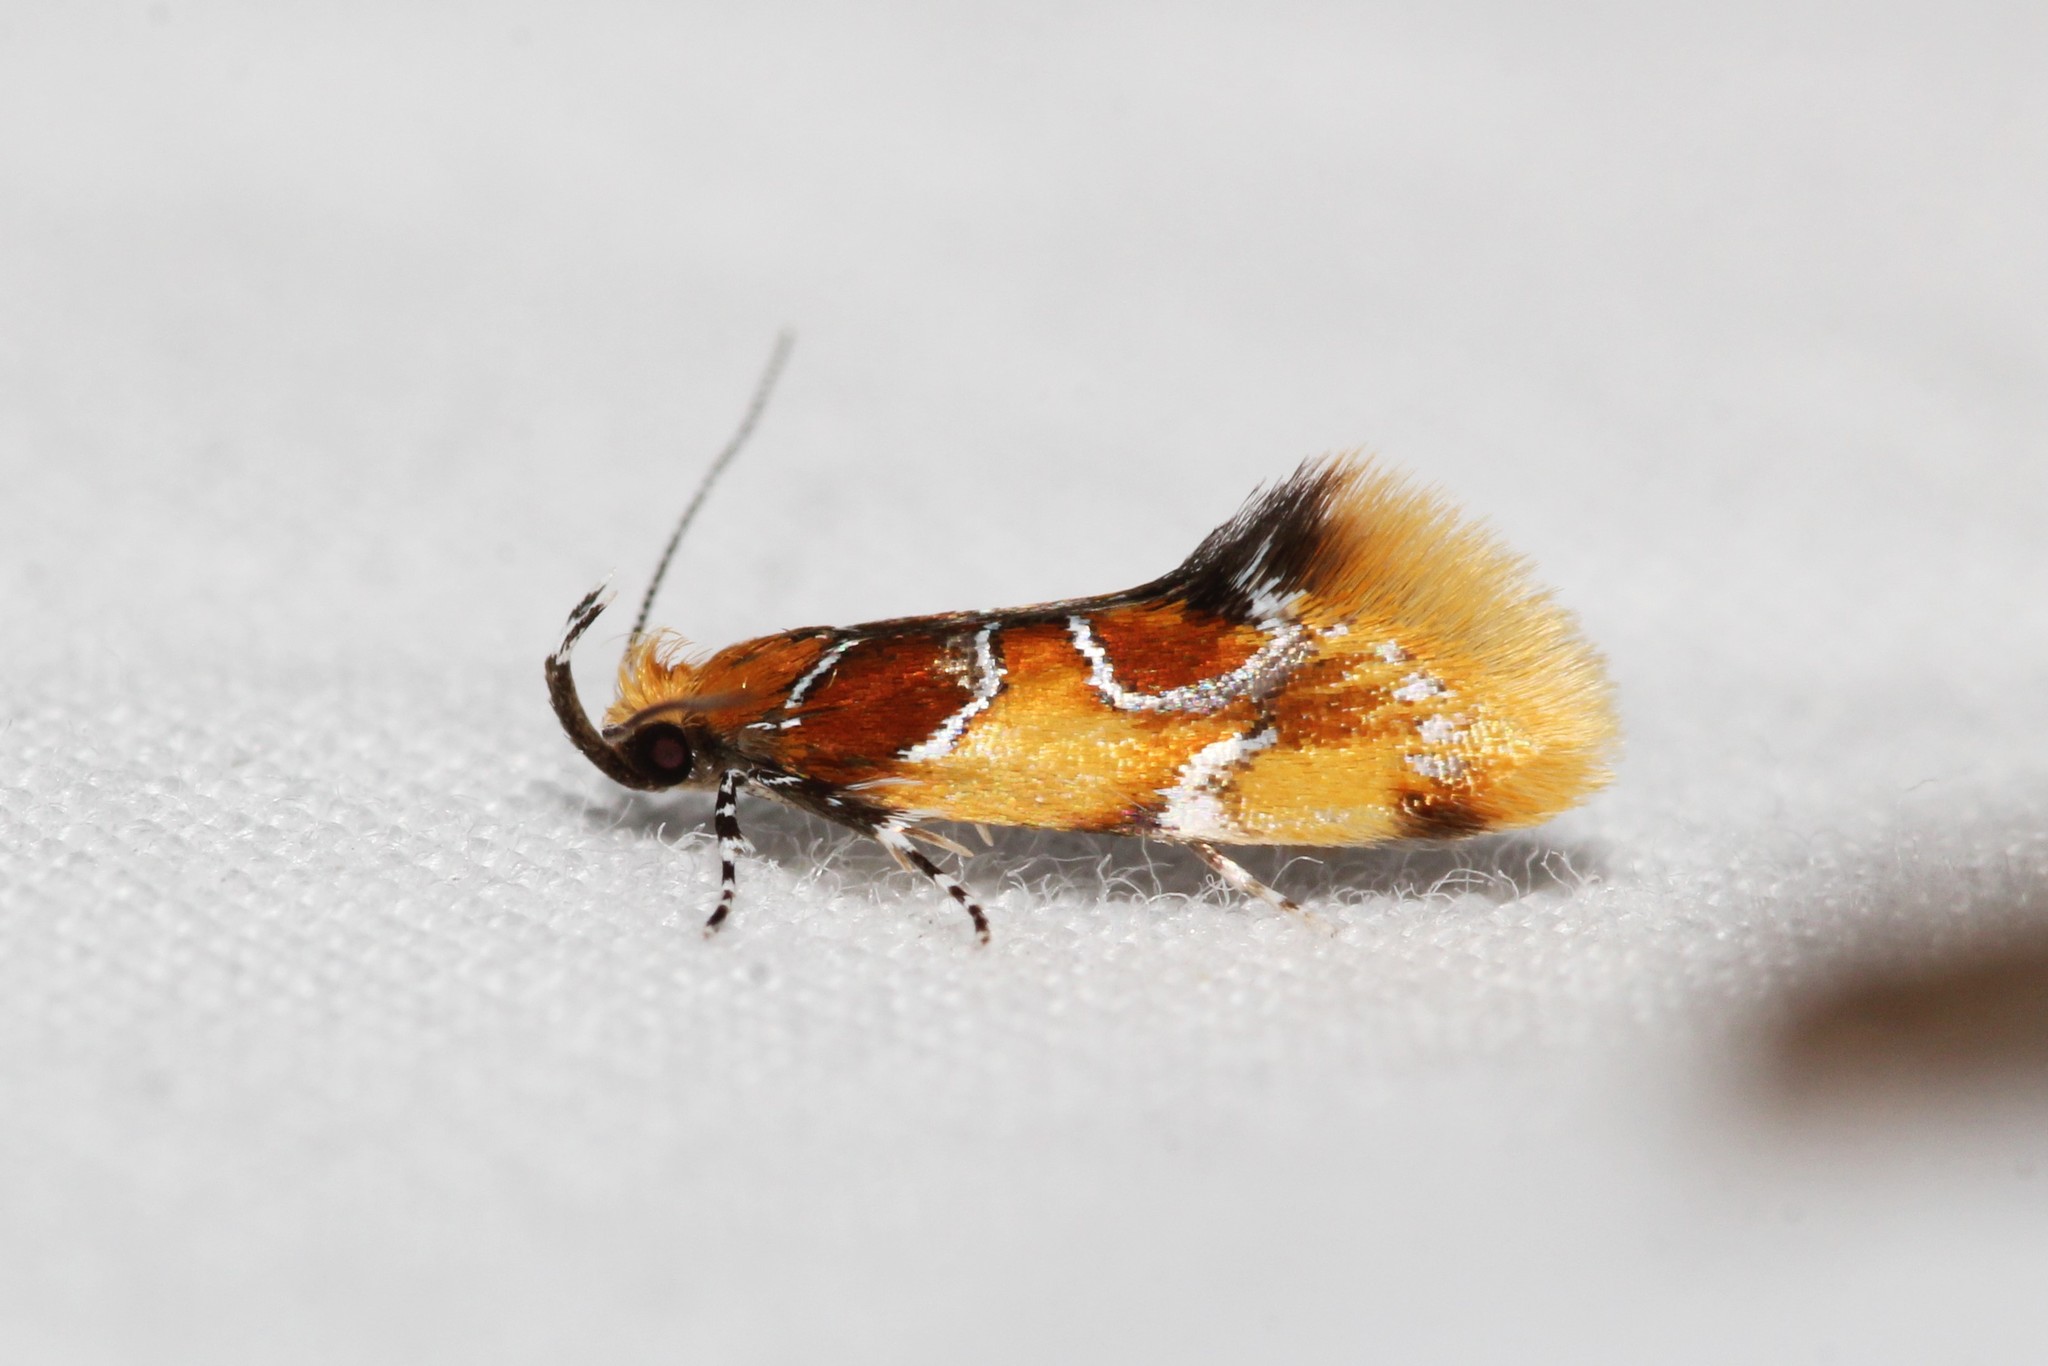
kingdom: Animalia
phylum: Arthropoda
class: Insecta
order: Lepidoptera
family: Oecophoridae
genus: Callima
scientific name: Callima argenticinctella
